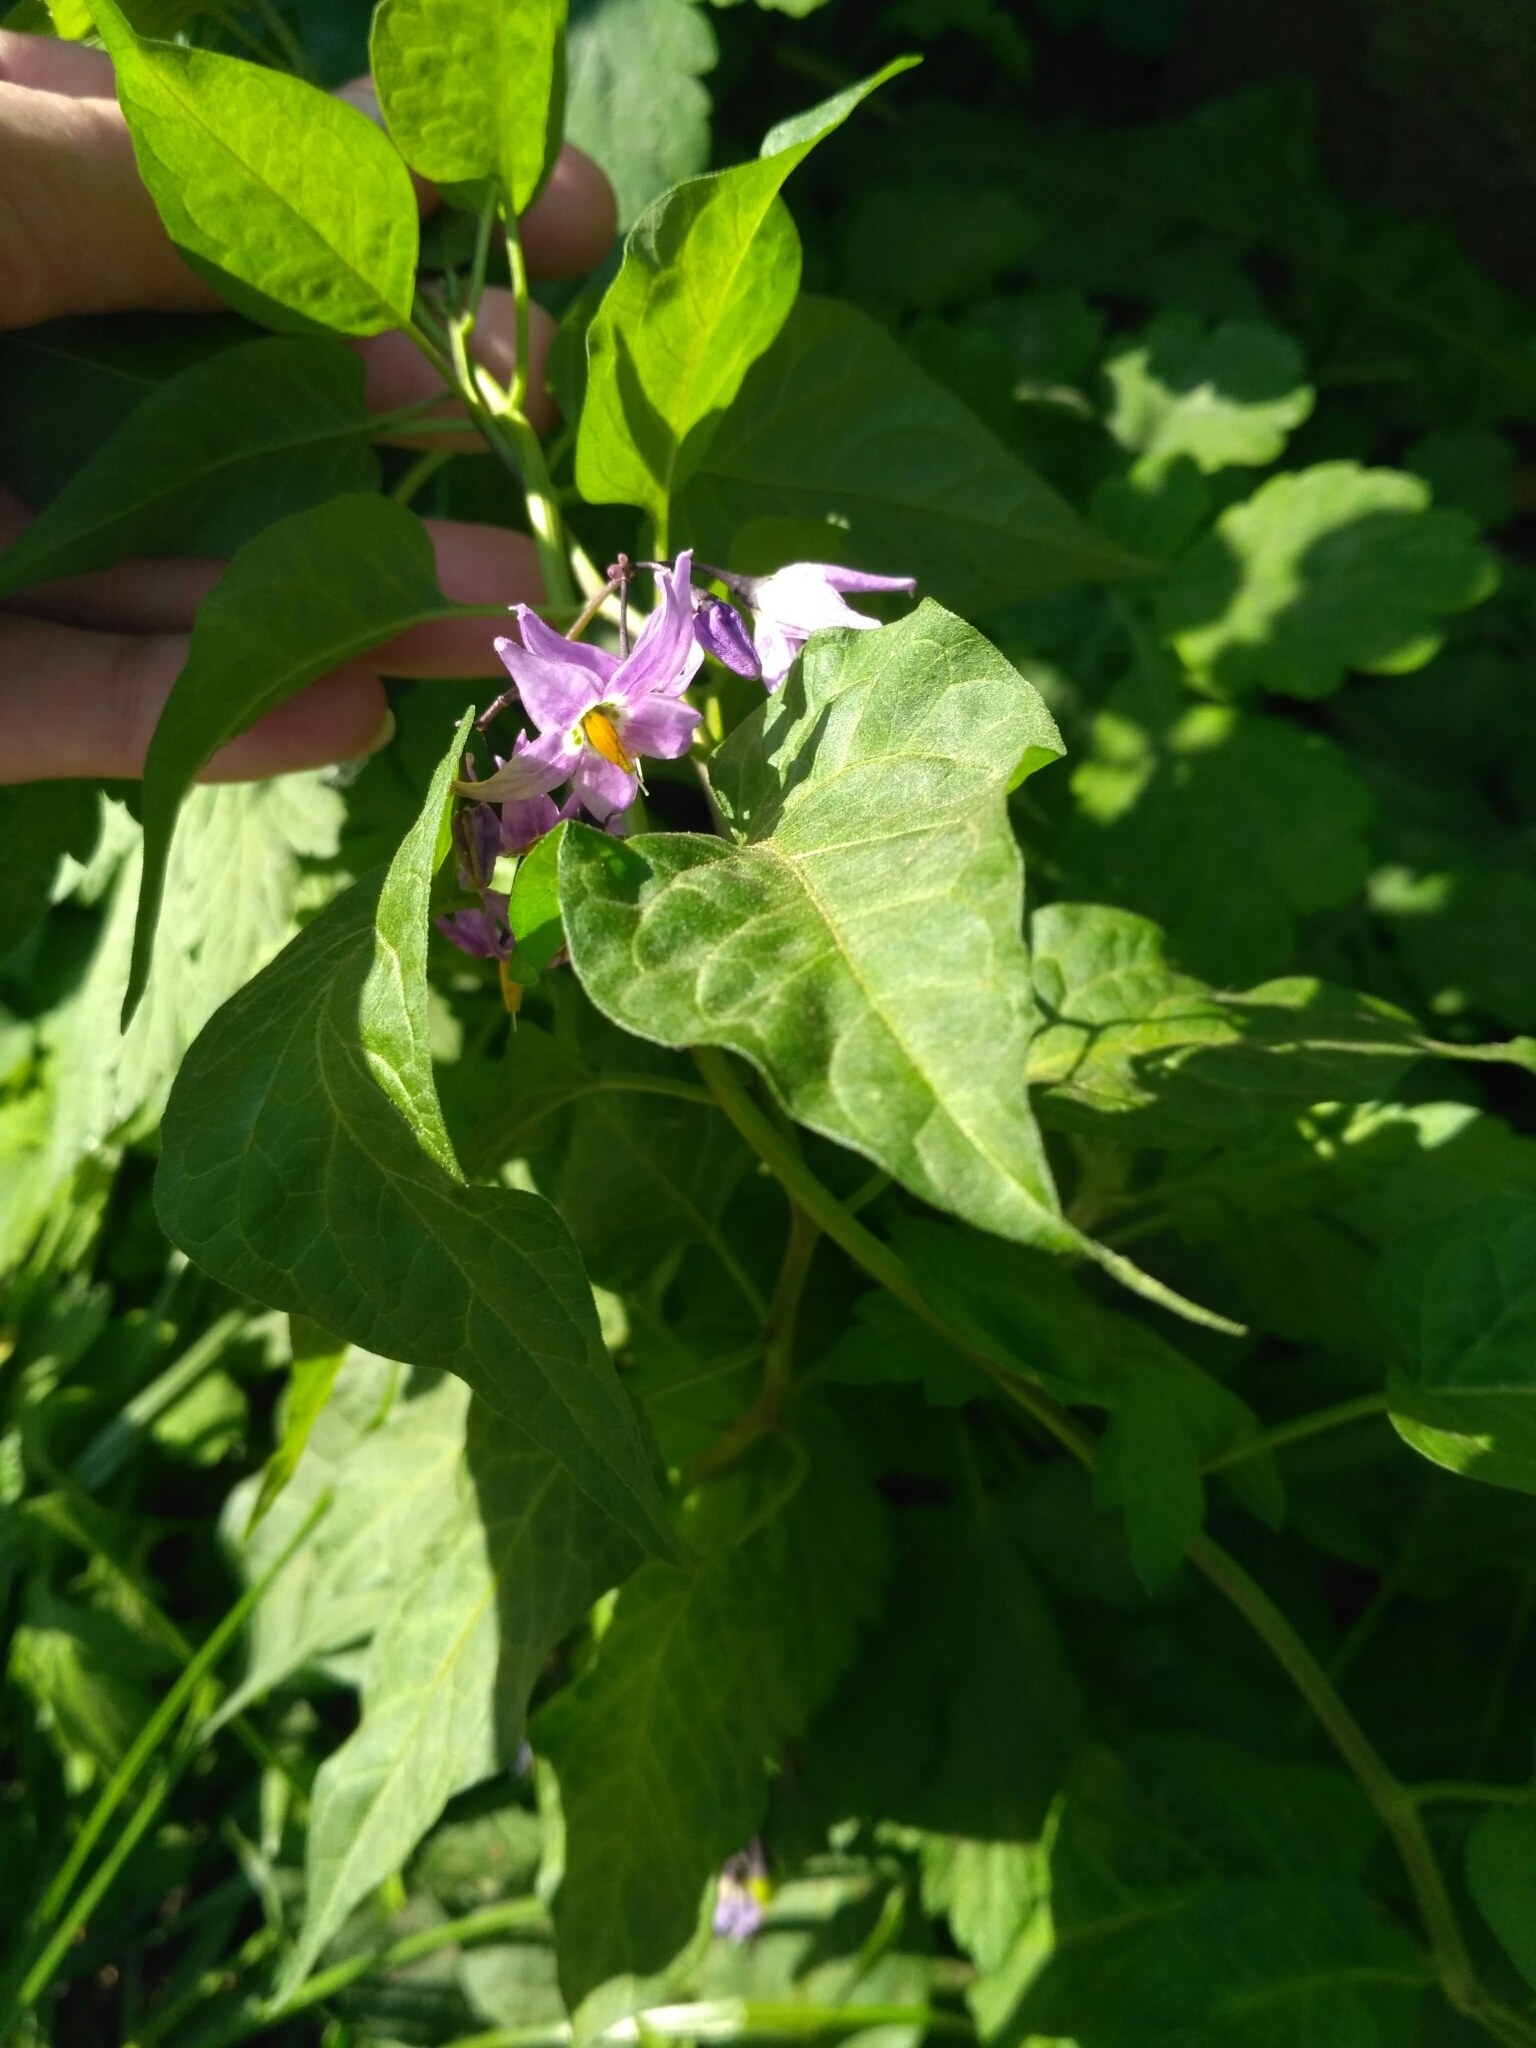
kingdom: Plantae
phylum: Tracheophyta
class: Magnoliopsida
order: Solanales
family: Solanaceae
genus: Solanum
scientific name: Solanum dulcamara
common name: Climbing nightshade
